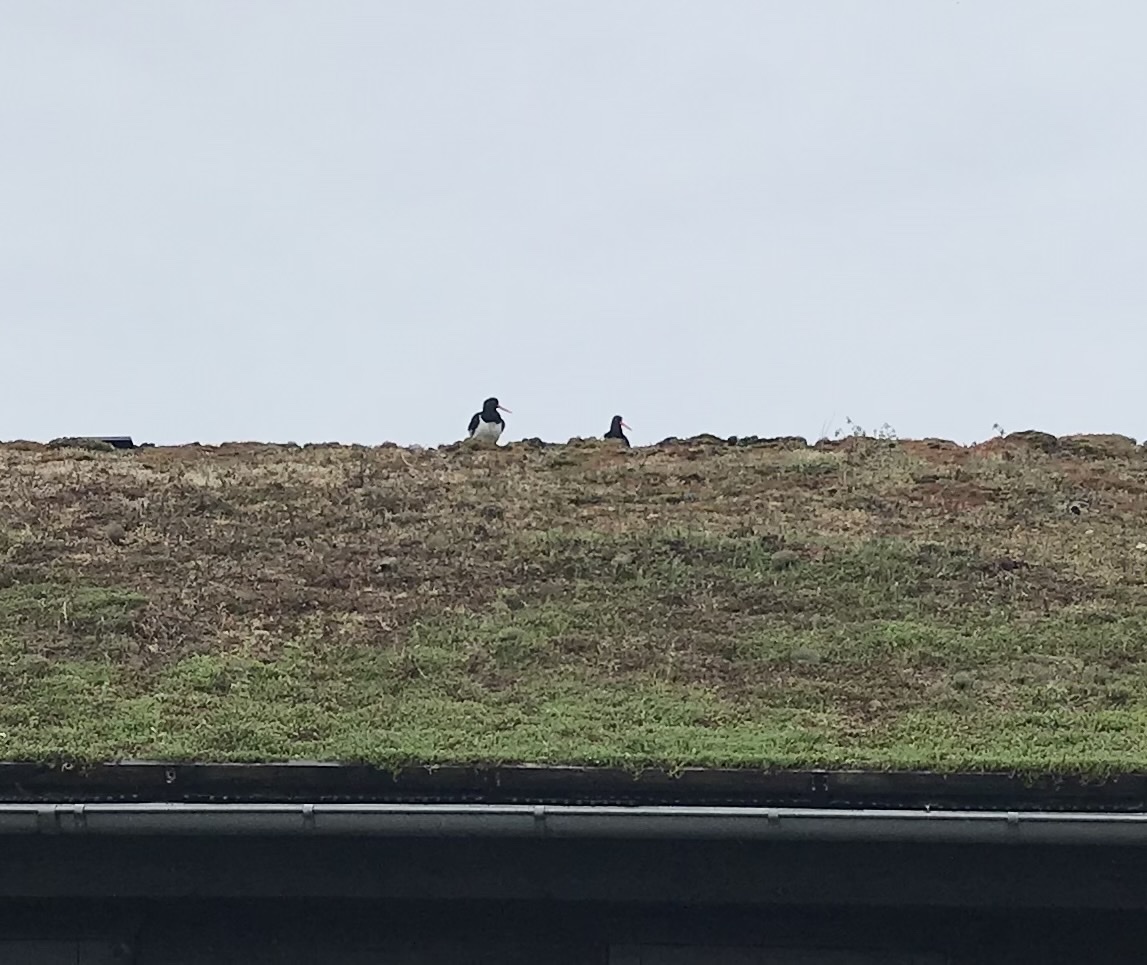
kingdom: Animalia
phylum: Chordata
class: Aves
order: Charadriiformes
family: Haematopodidae
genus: Haematopus
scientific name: Haematopus ostralegus
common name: Eurasian oystercatcher
